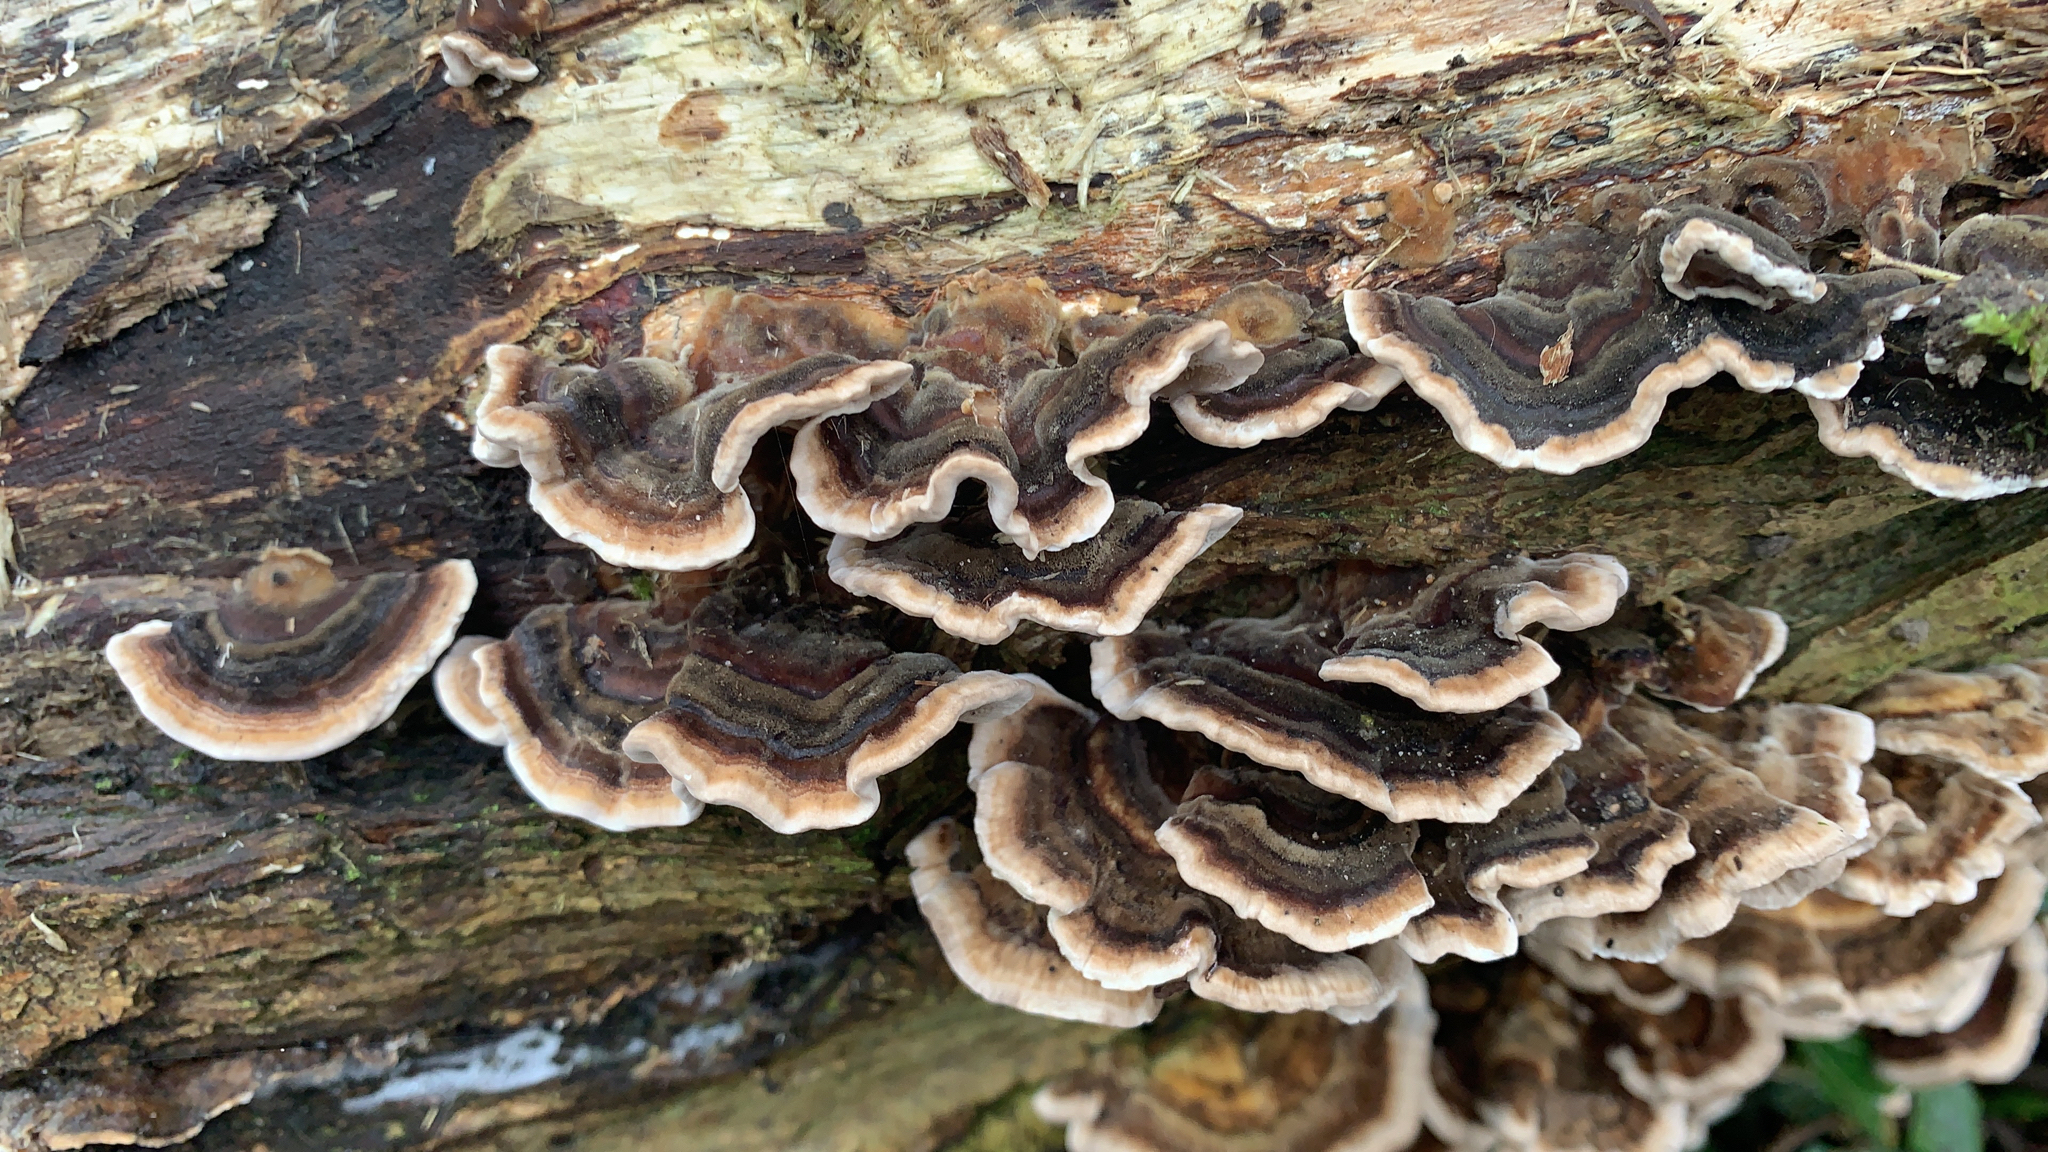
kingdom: Fungi
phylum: Basidiomycota
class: Agaricomycetes
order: Polyporales
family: Polyporaceae
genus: Trametes
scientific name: Trametes versicolor
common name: Turkeytail
